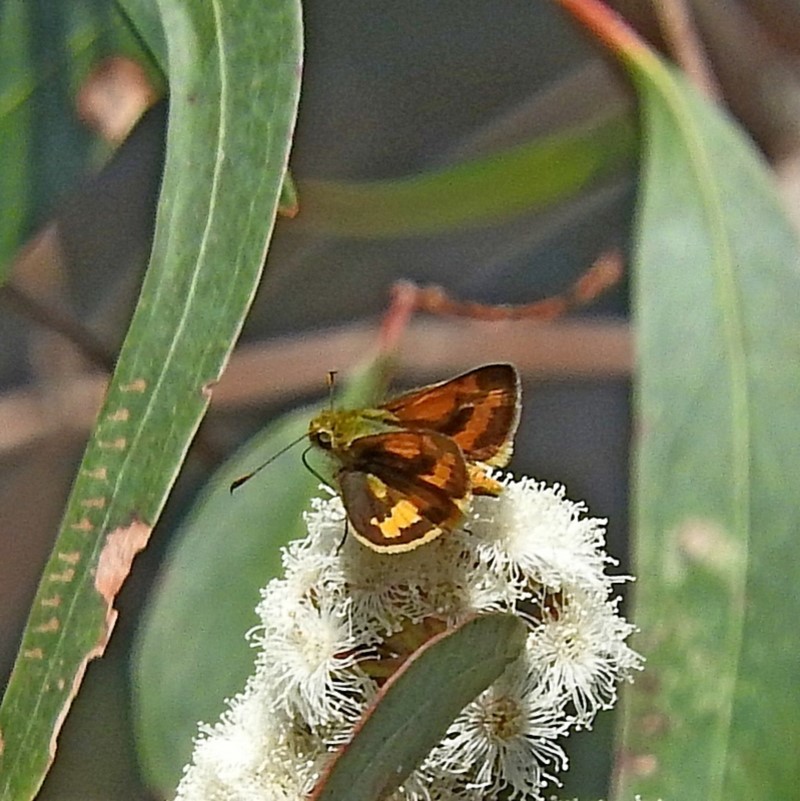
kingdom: Animalia
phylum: Arthropoda
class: Insecta
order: Lepidoptera
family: Hesperiidae
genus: Ocybadistes
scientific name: Ocybadistes walkeri
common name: Yellow-banded dart
